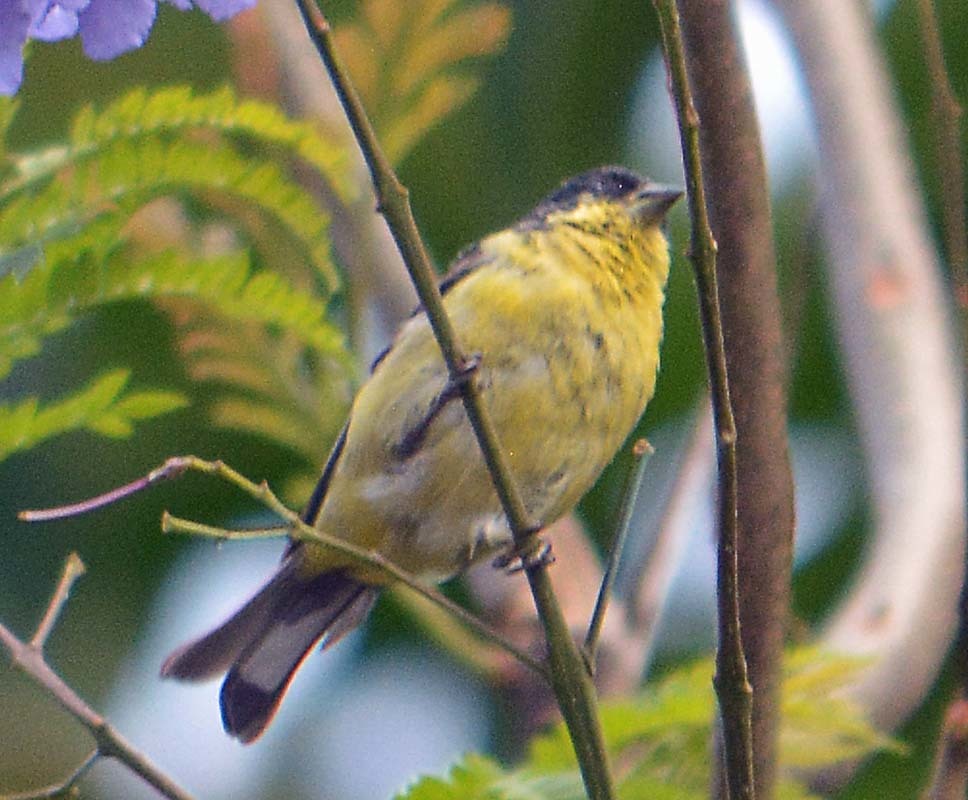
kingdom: Animalia
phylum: Chordata
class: Aves
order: Passeriformes
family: Fringillidae
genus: Spinus
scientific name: Spinus psaltria
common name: Lesser goldfinch
